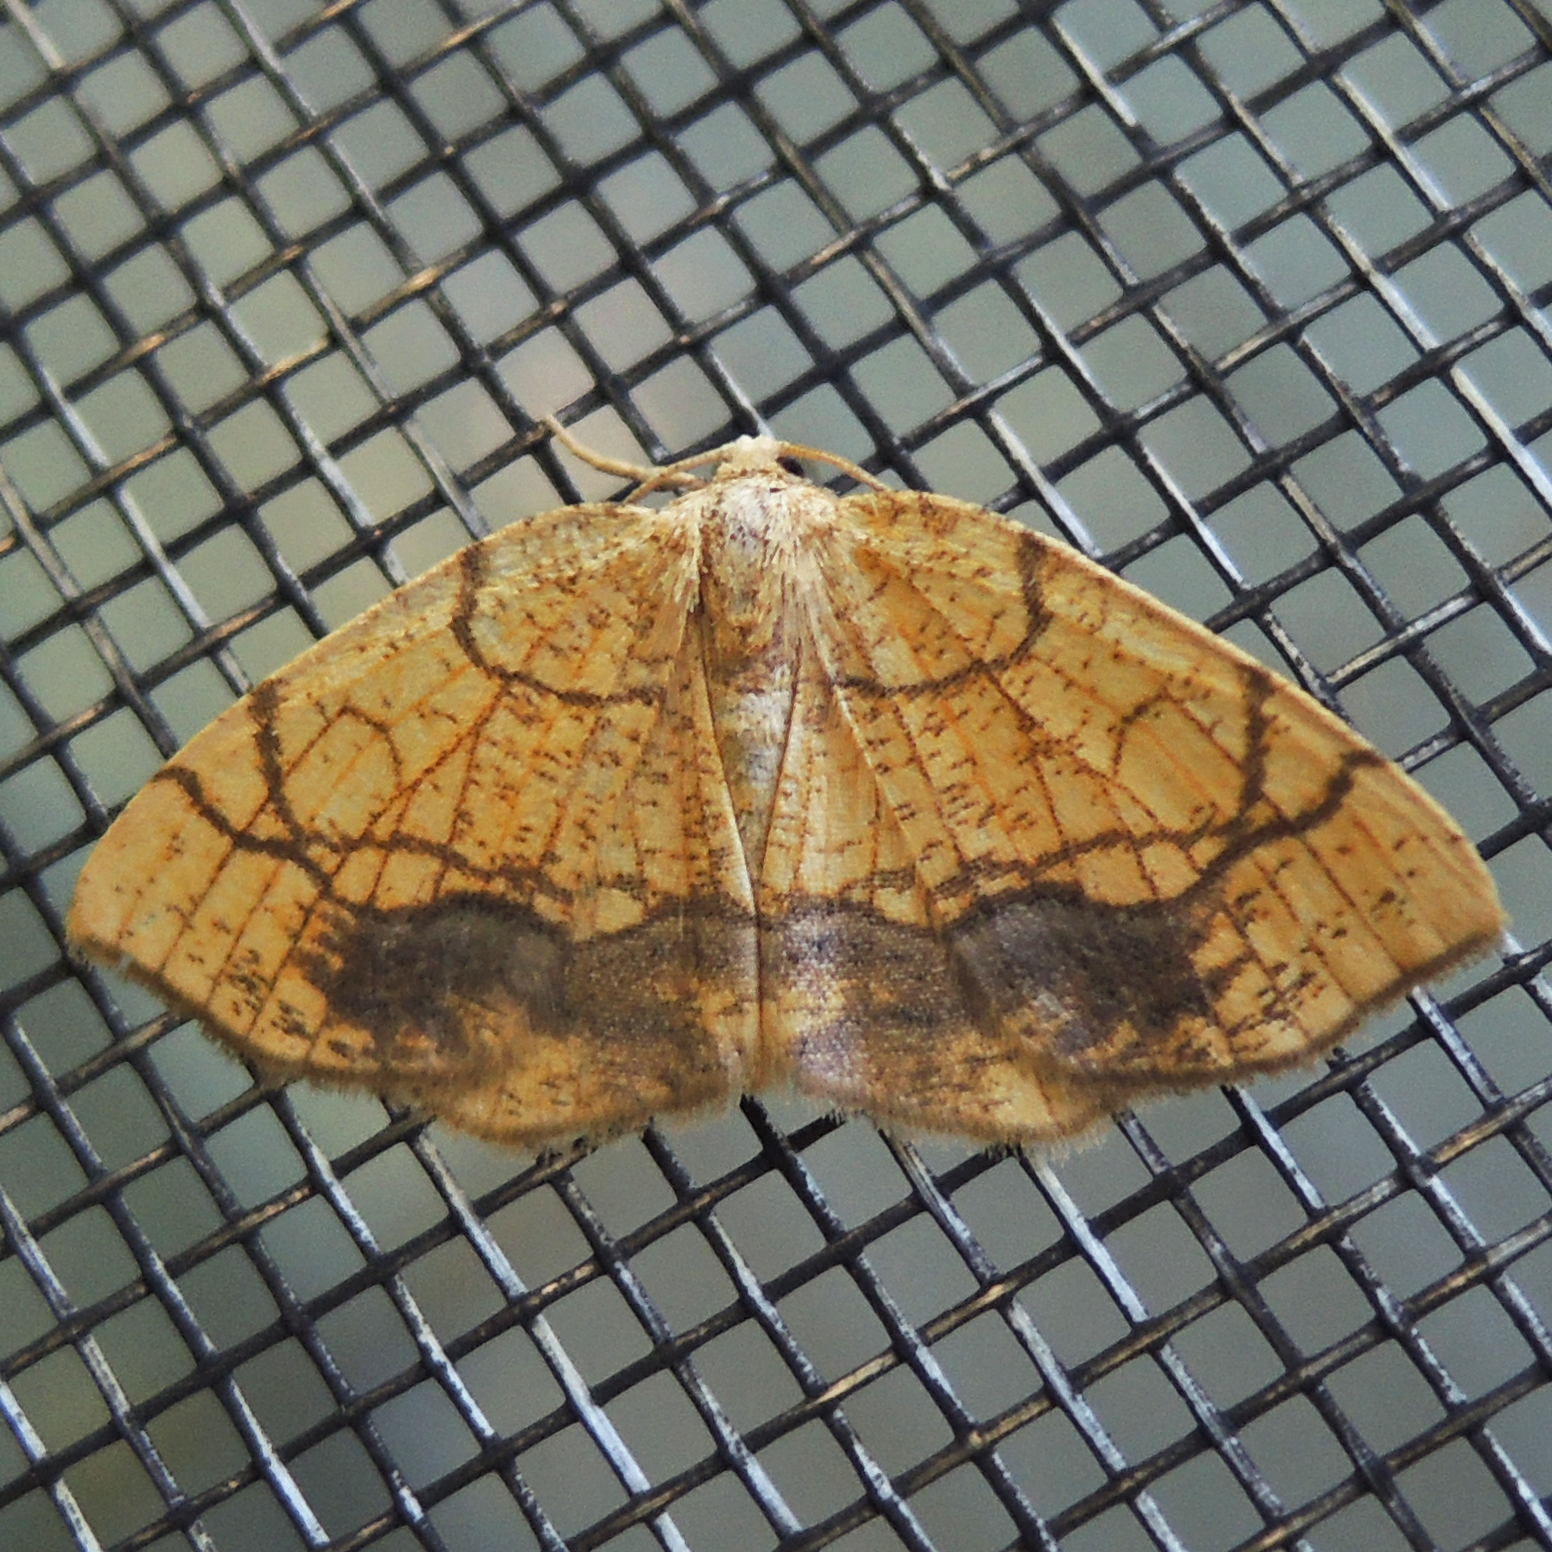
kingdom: Animalia
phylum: Arthropoda
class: Insecta
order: Lepidoptera
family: Geometridae
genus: Nematocampa
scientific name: Nematocampa resistaria
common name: Horned spanworm moth
